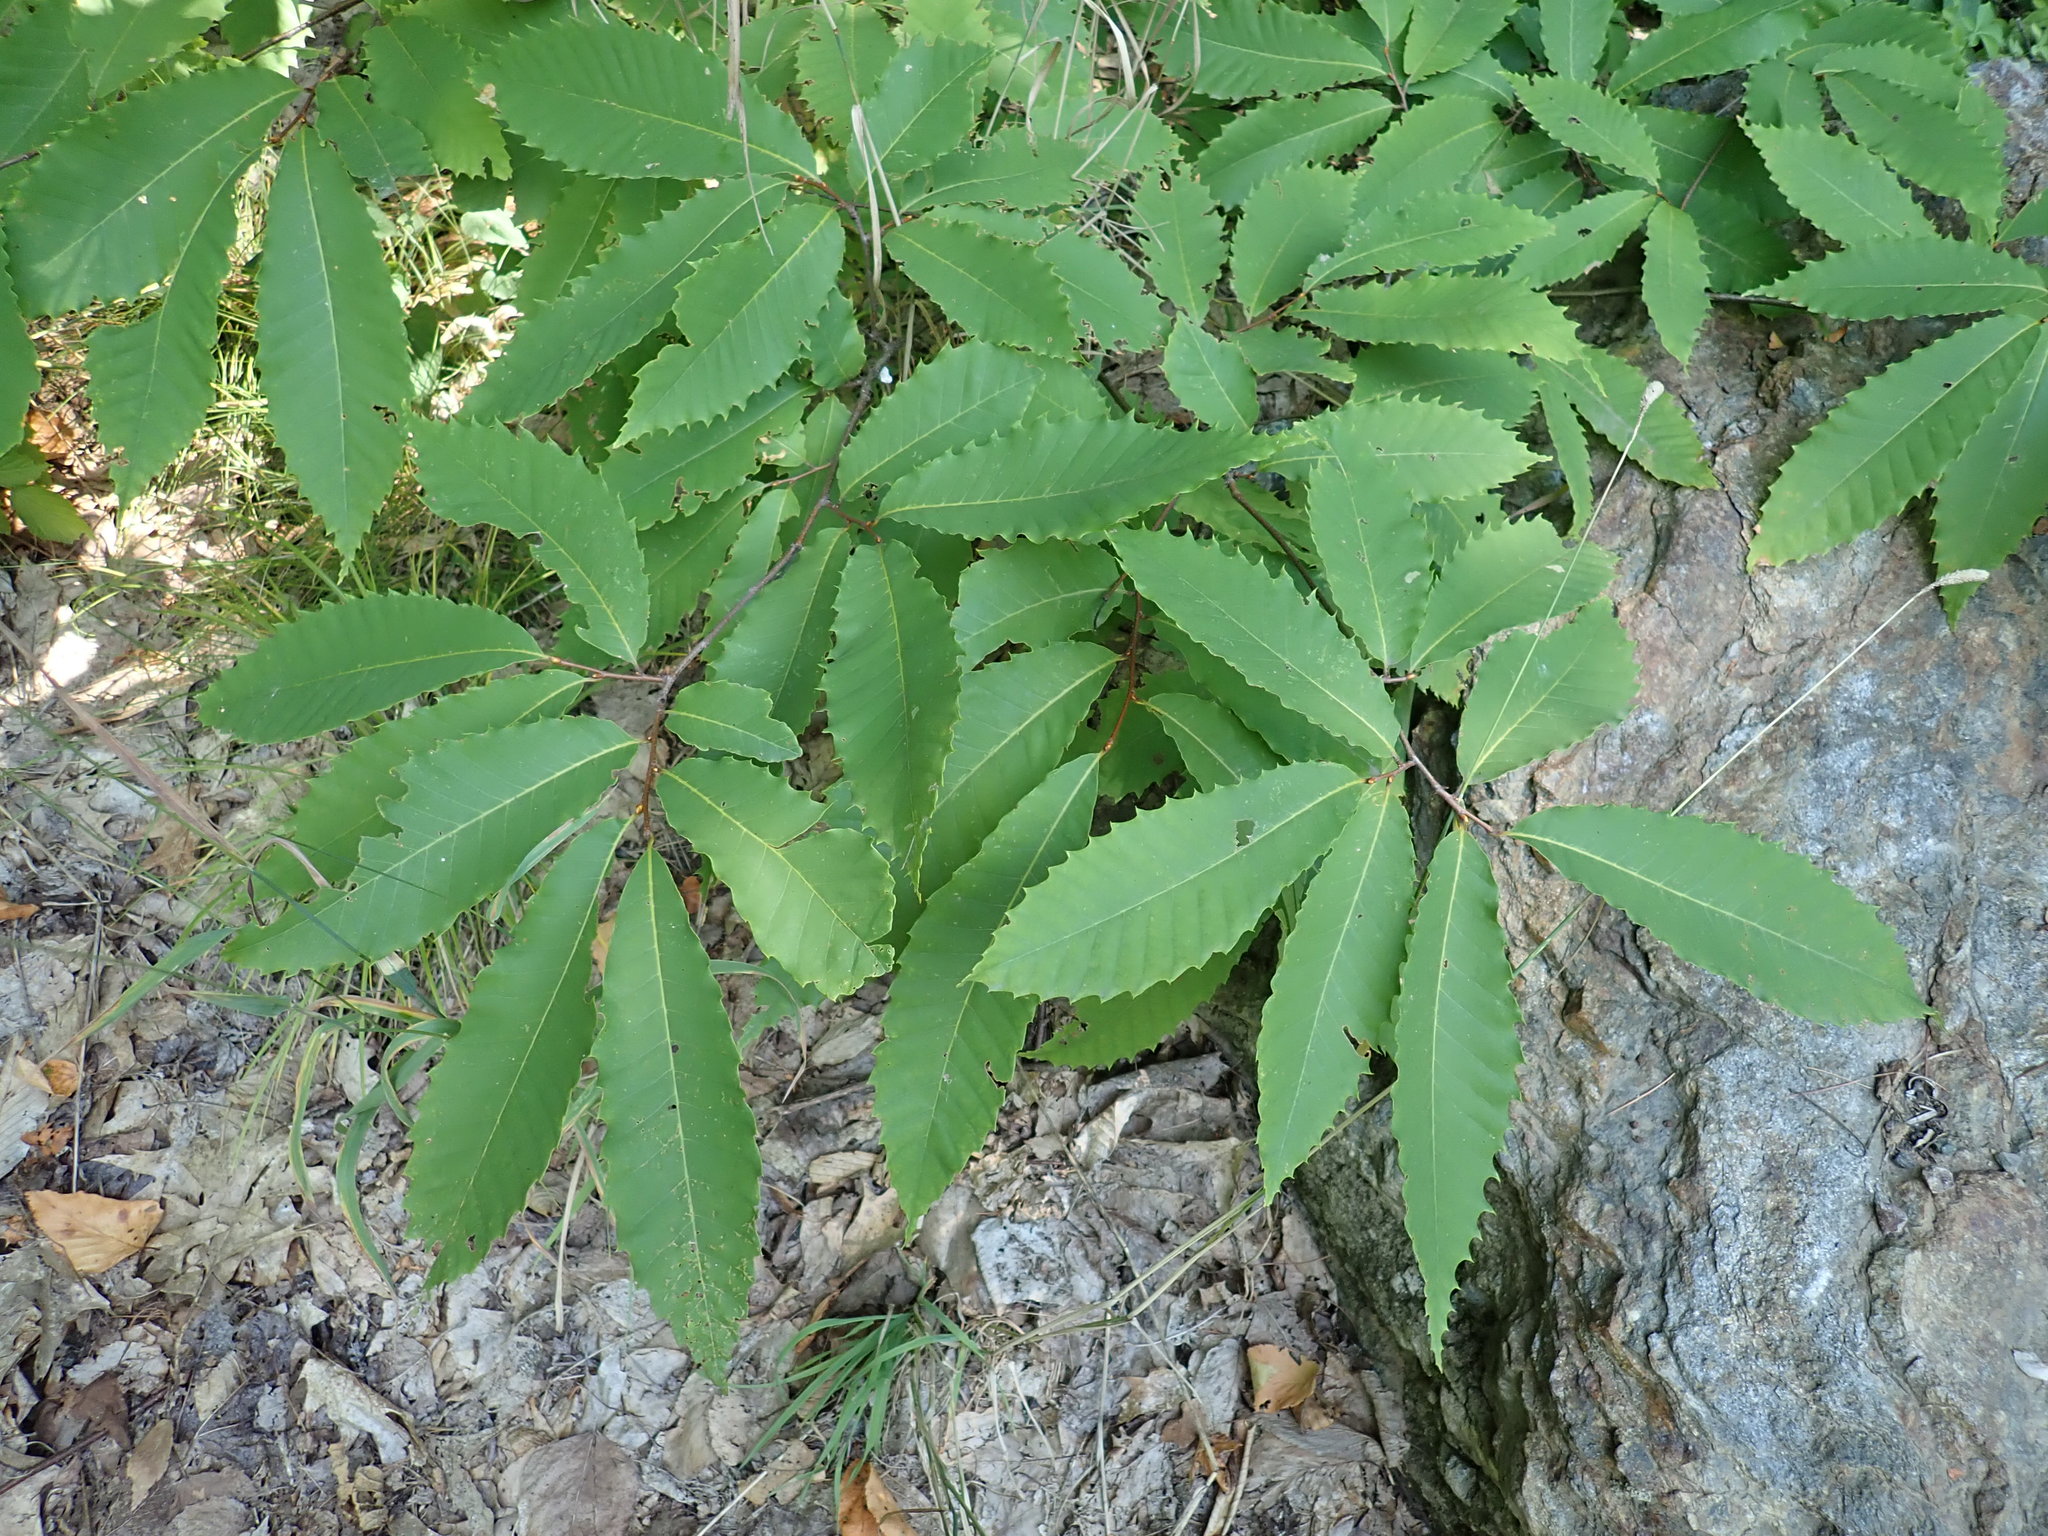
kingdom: Plantae
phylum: Tracheophyta
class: Magnoliopsida
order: Fagales
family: Fagaceae
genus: Castanea
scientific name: Castanea dentata
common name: American chestnut
